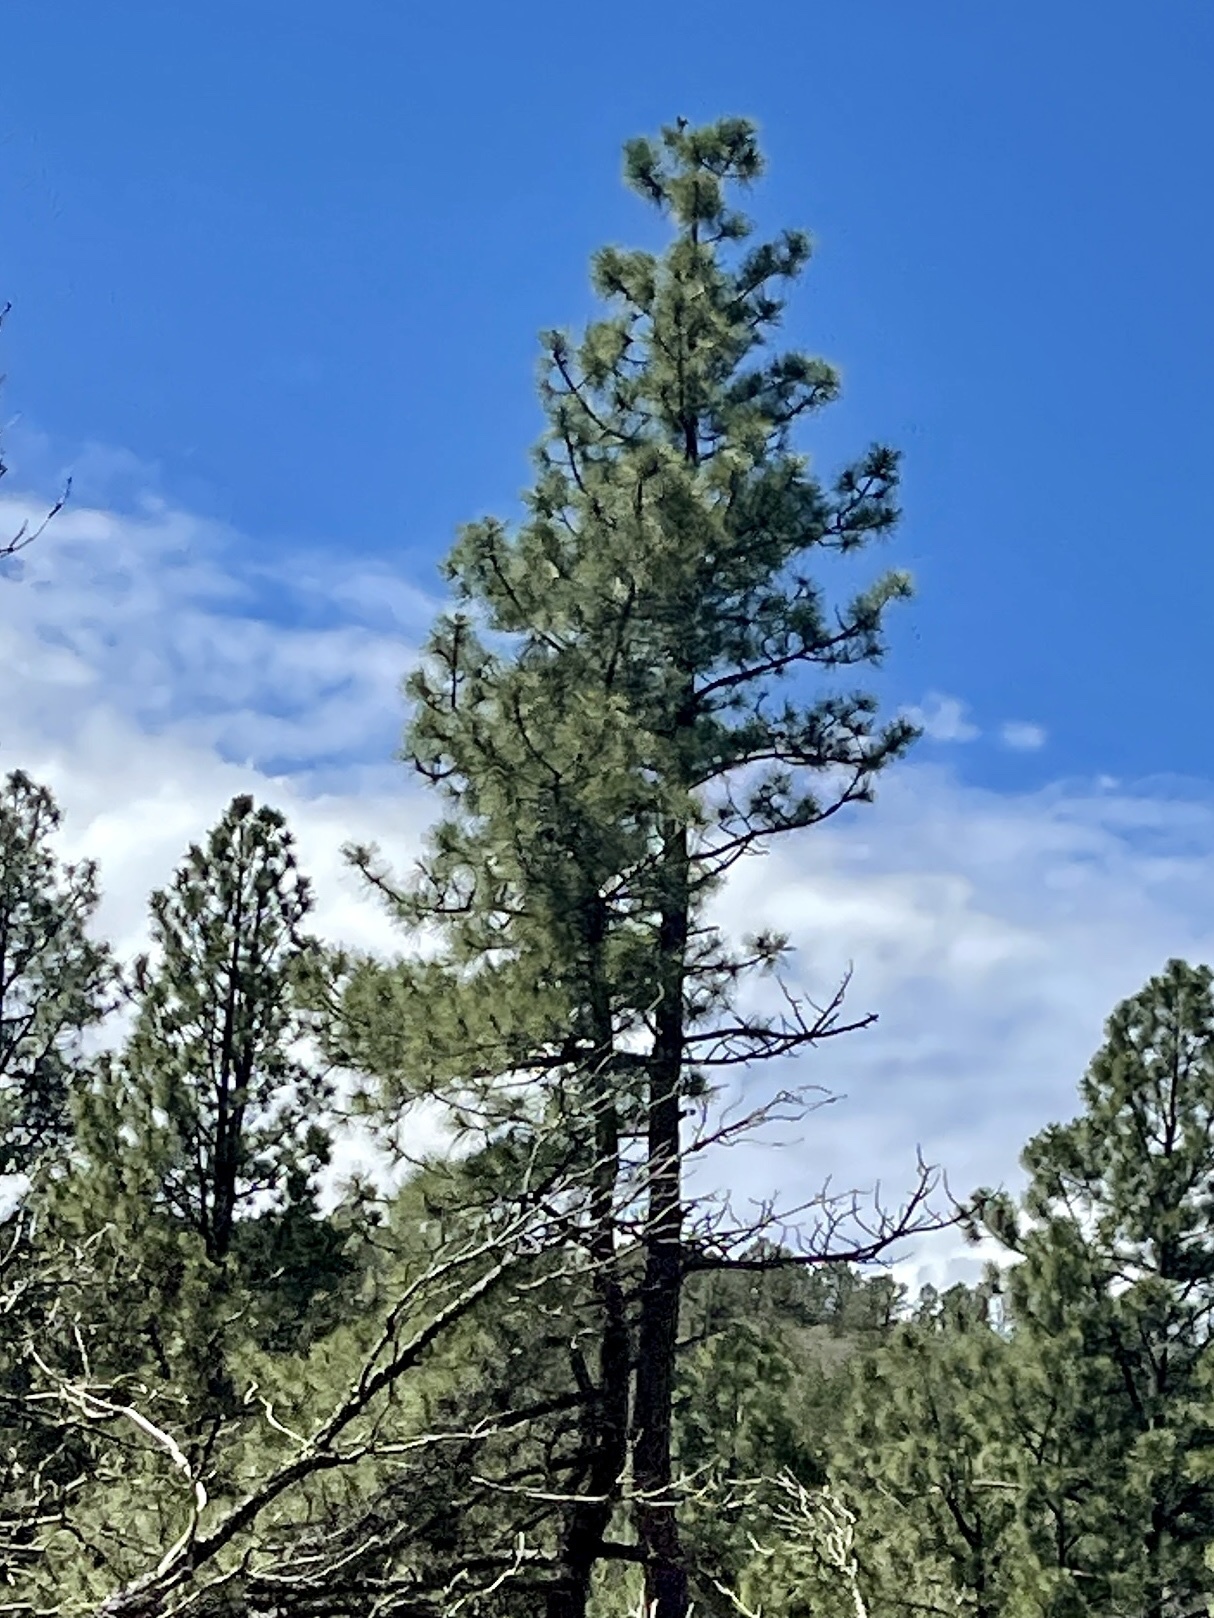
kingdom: Plantae
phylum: Tracheophyta
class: Pinopsida
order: Pinales
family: Pinaceae
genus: Pinus
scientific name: Pinus ponderosa
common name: Western yellow-pine
